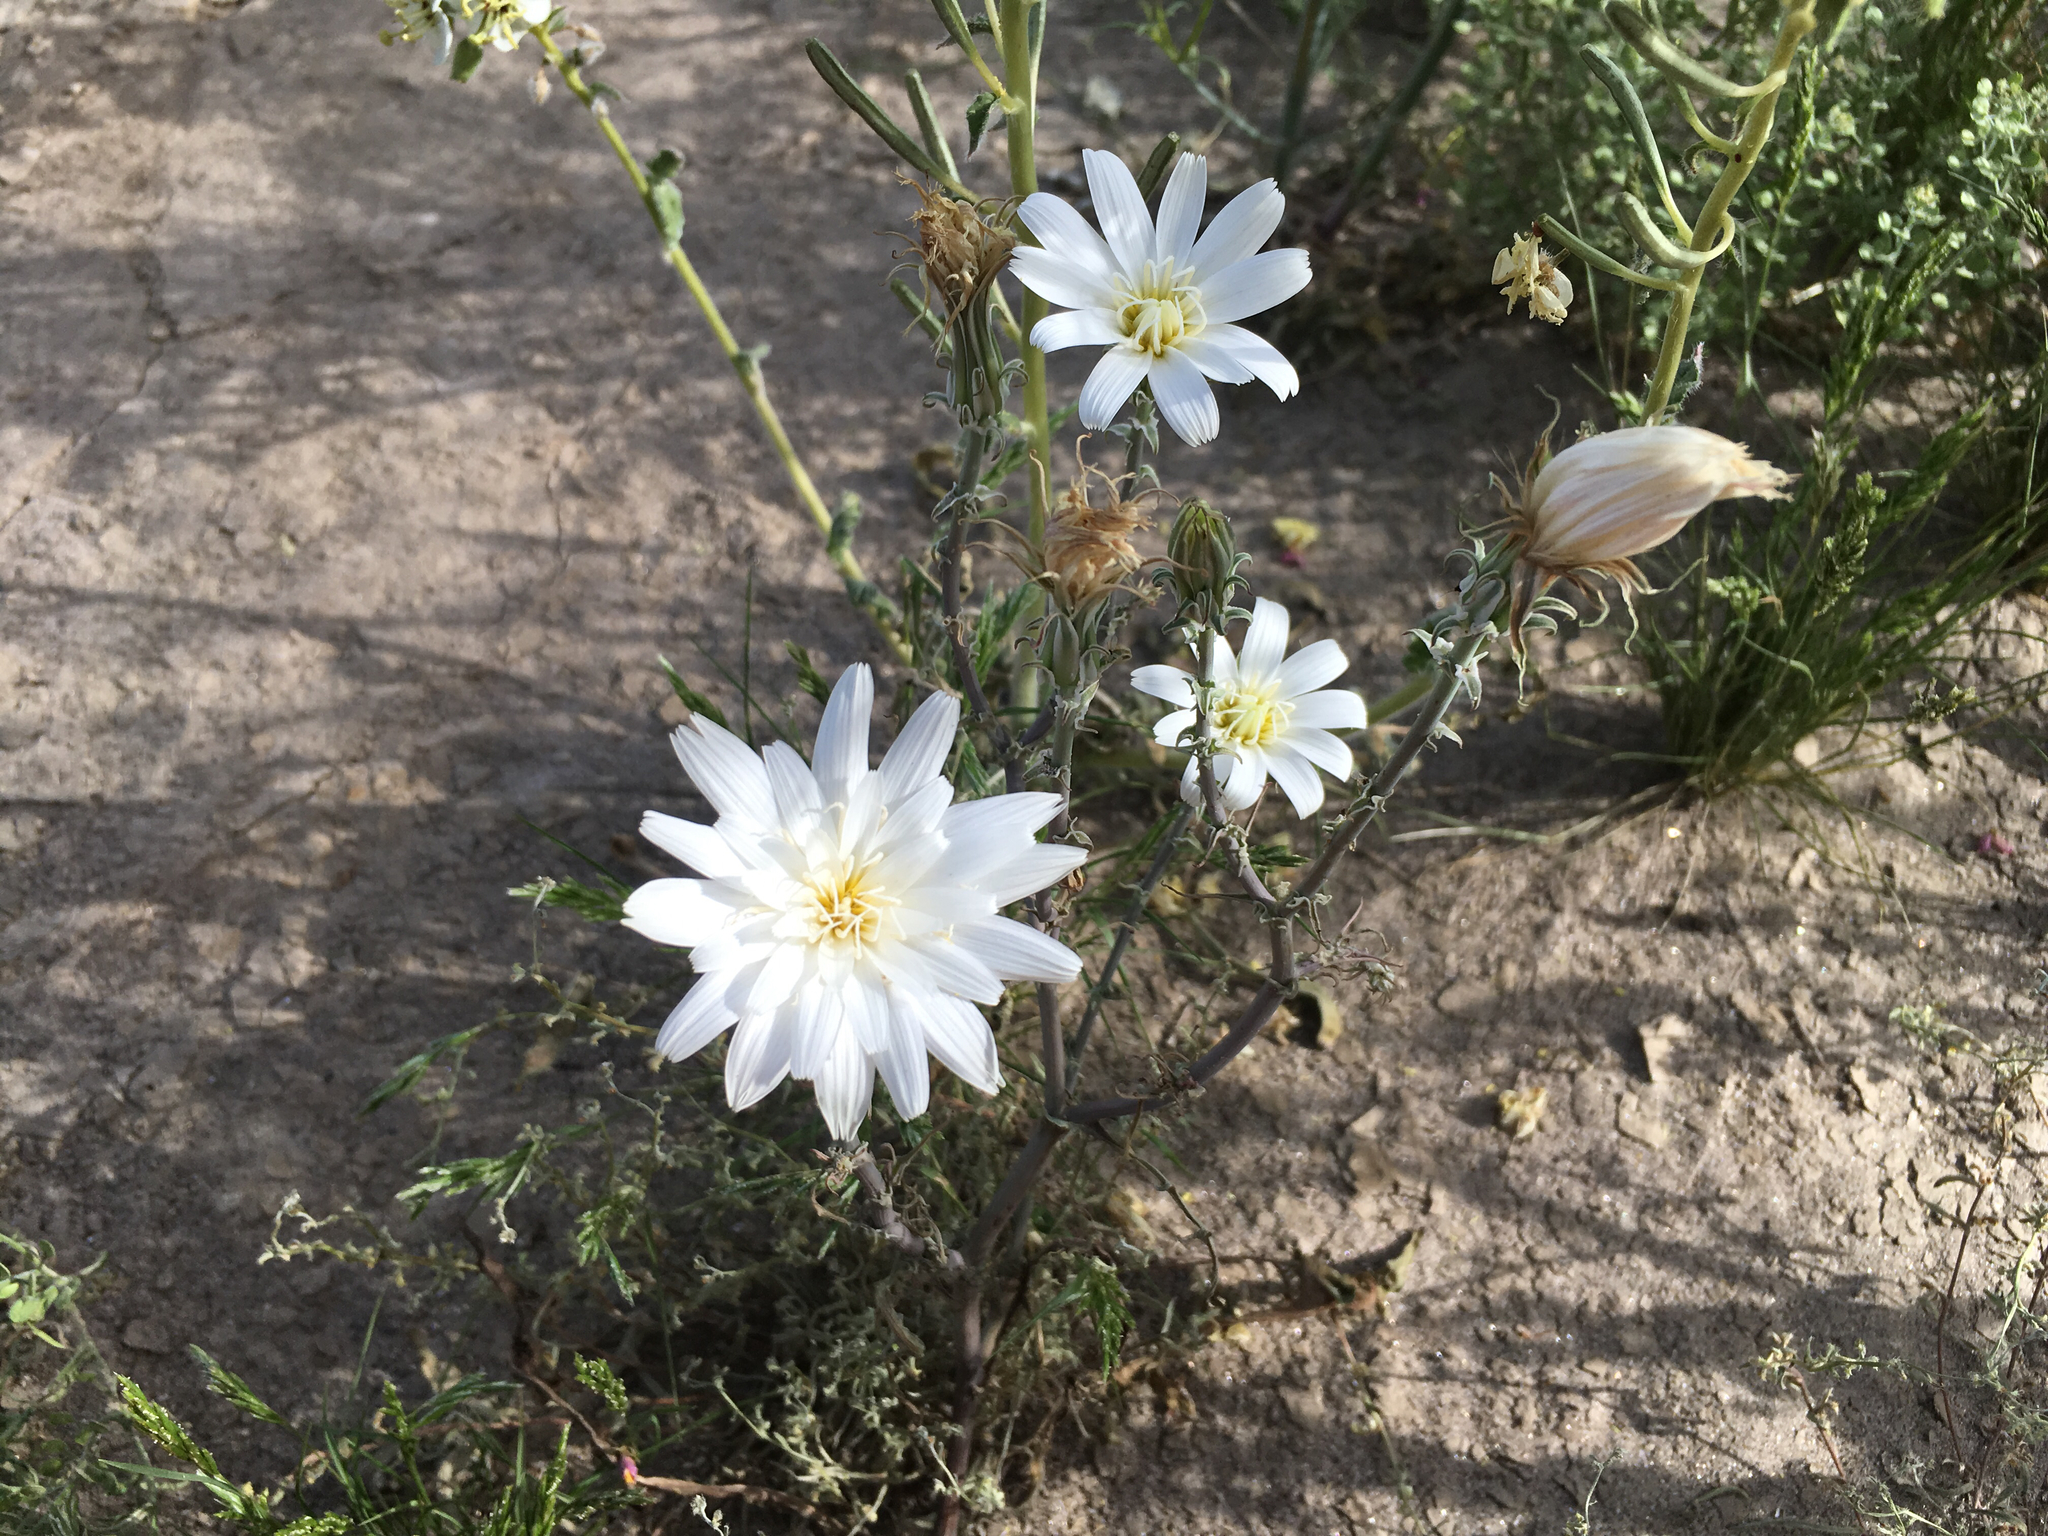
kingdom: Plantae
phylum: Tracheophyta
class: Magnoliopsida
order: Asterales
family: Asteraceae
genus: Rafinesquia
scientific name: Rafinesquia neomexicana
